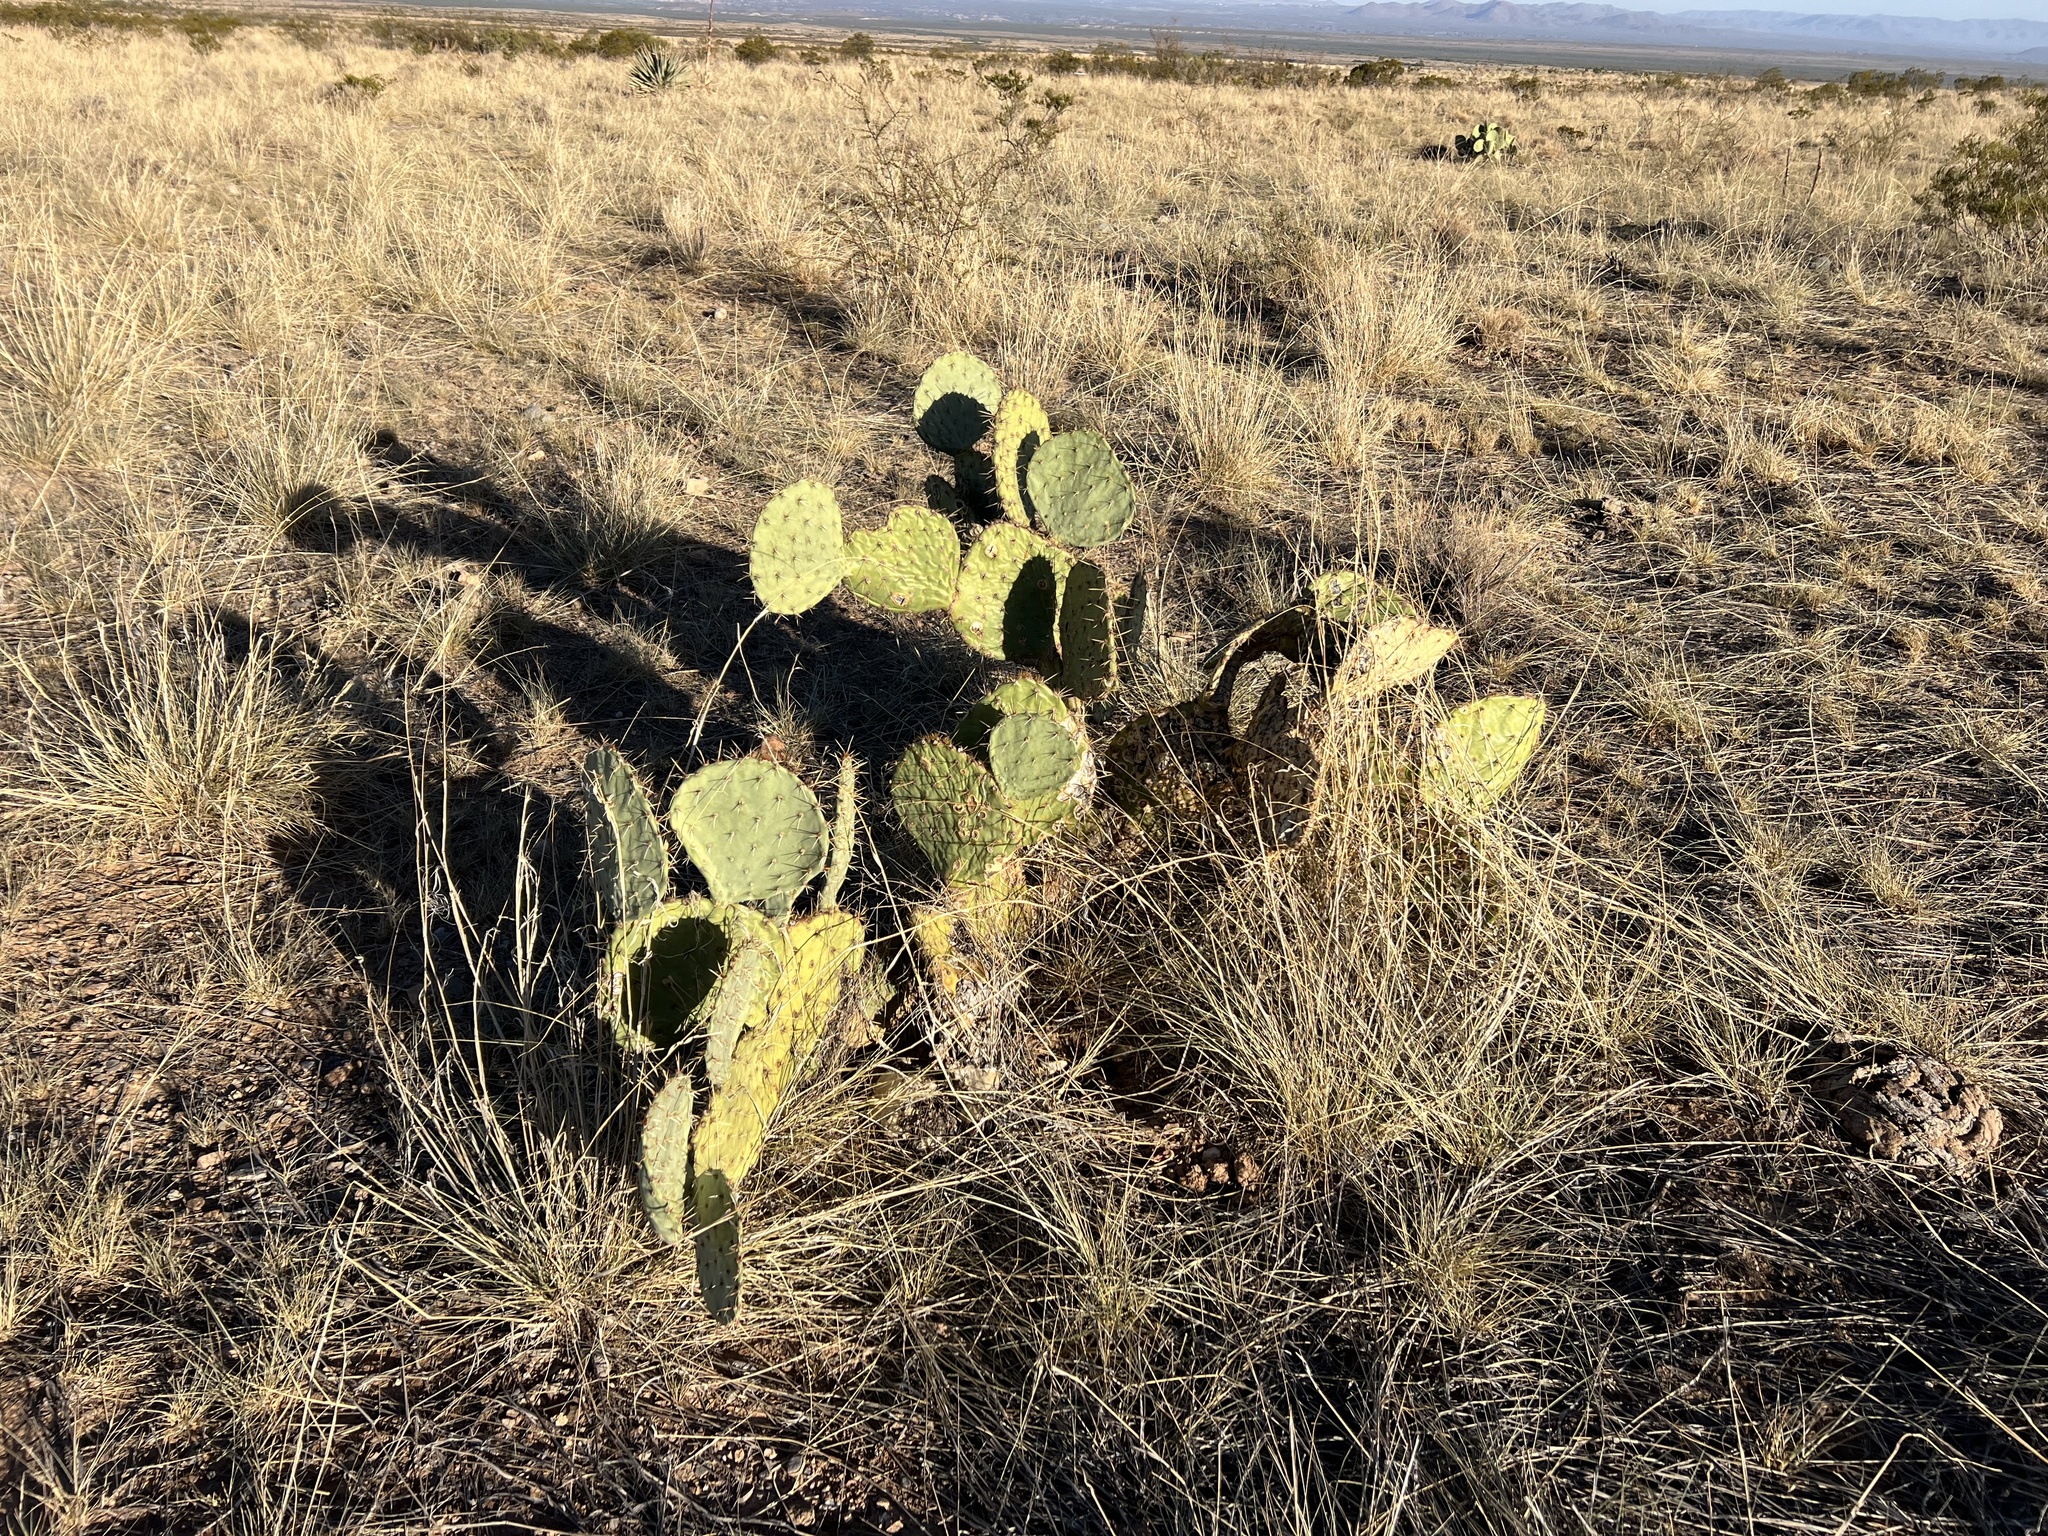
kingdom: Plantae
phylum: Tracheophyta
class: Magnoliopsida
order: Caryophyllales
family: Cactaceae
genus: Opuntia
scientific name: Opuntia engelmannii
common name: Cactus-apple
